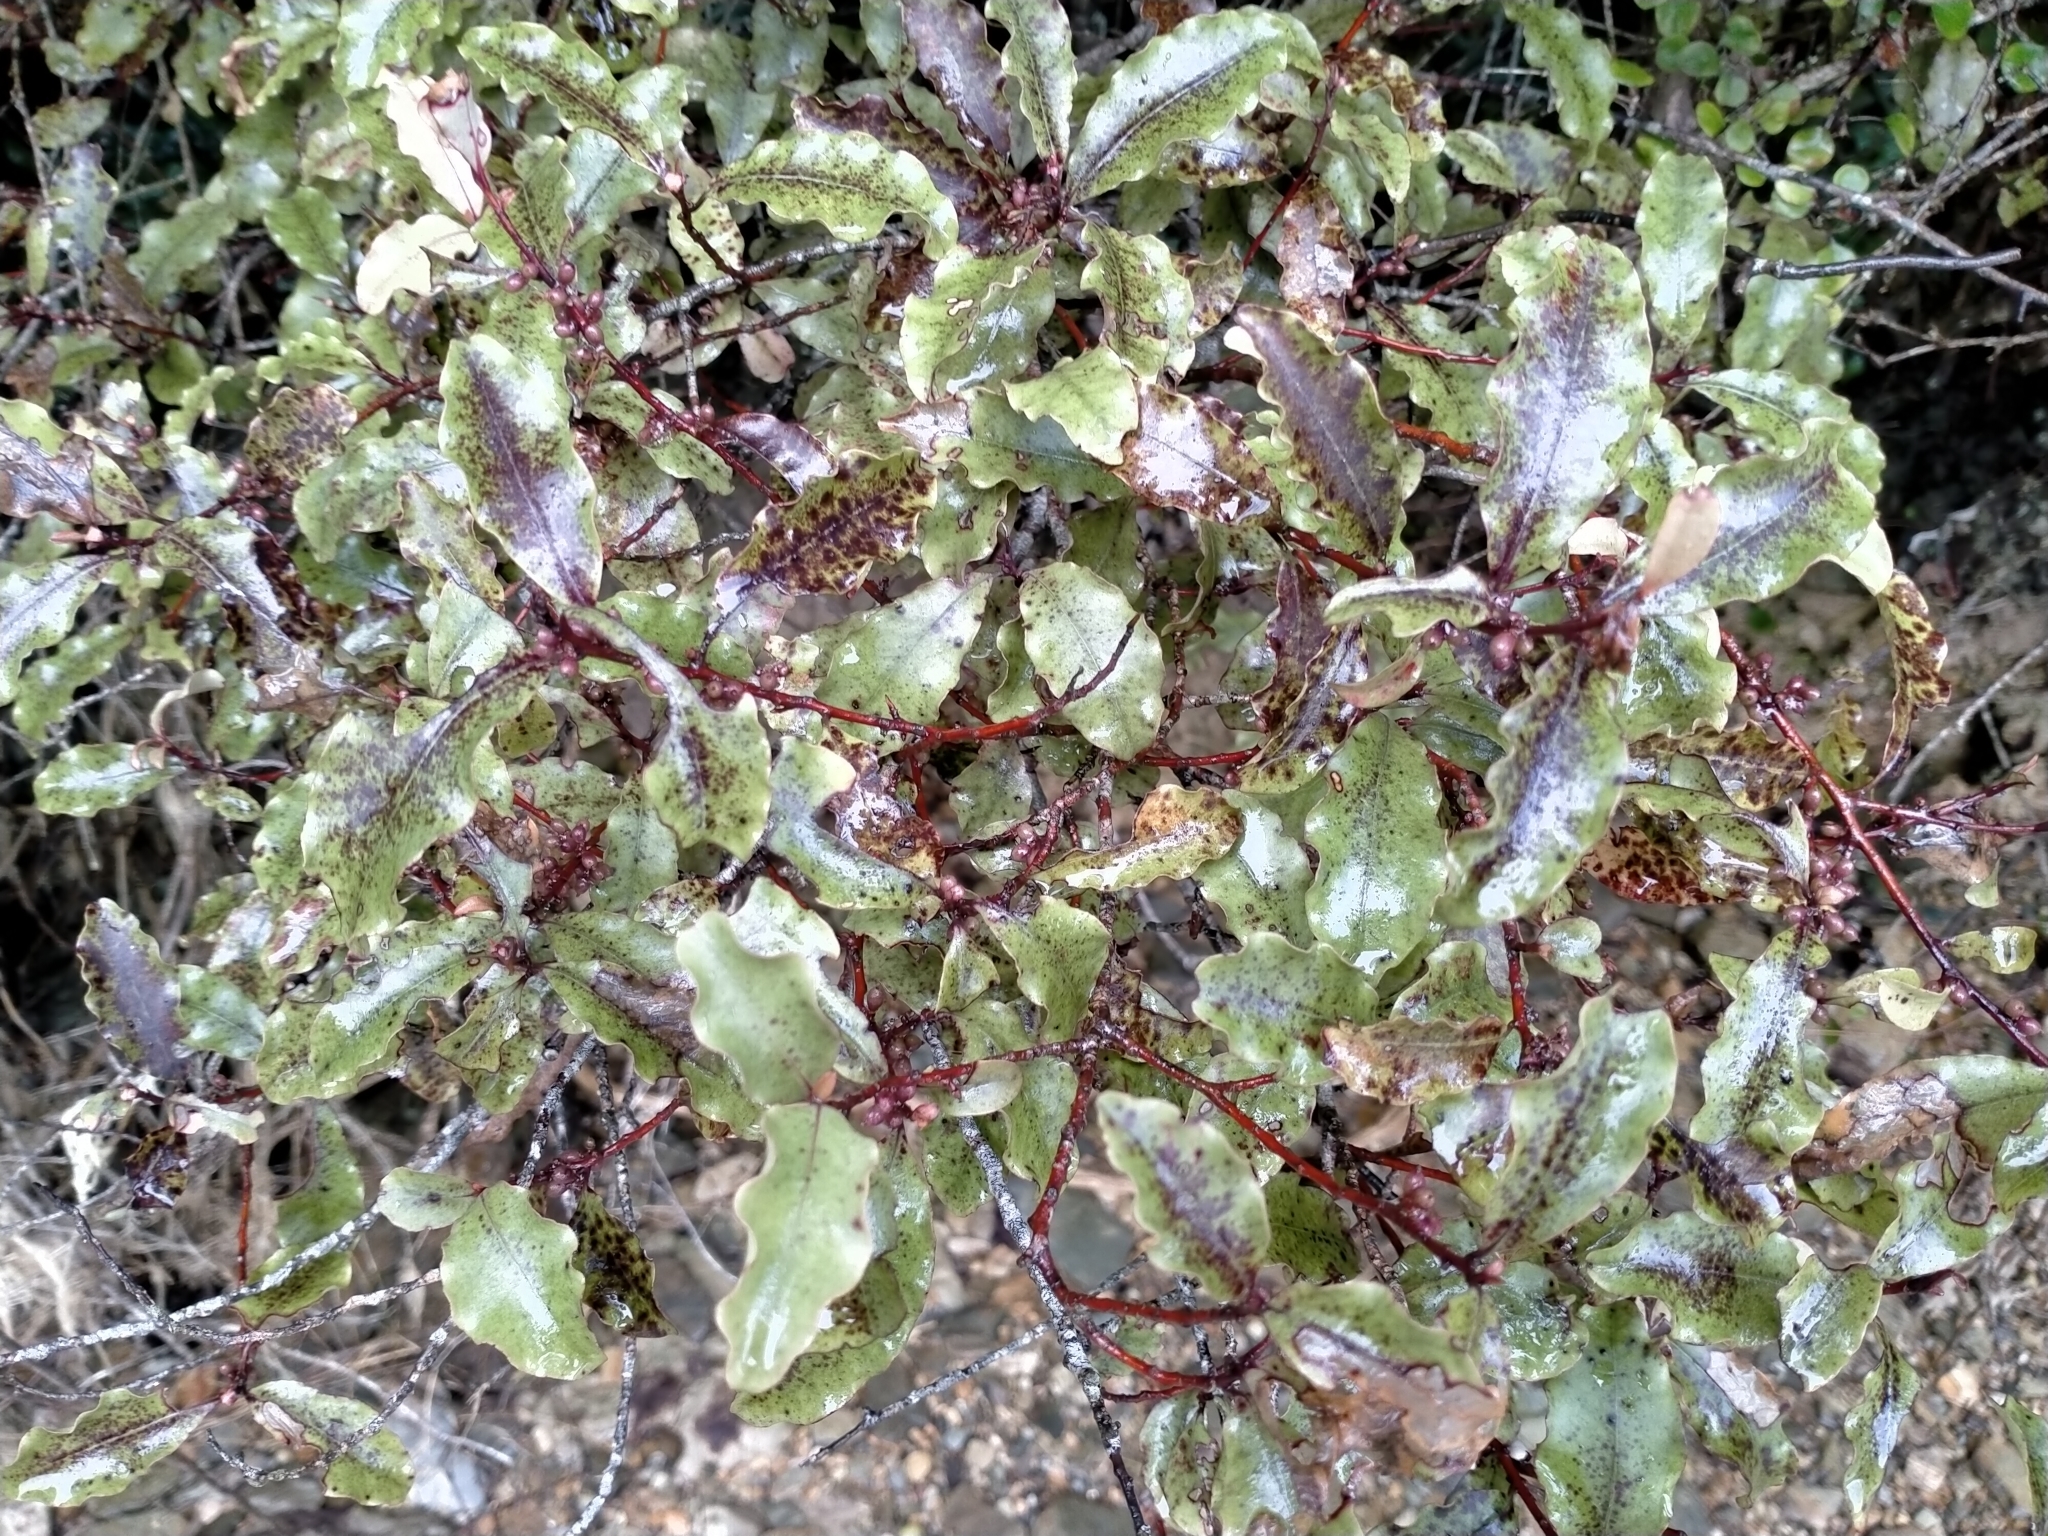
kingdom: Plantae
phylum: Tracheophyta
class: Magnoliopsida
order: Ericales
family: Primulaceae
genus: Myrsine
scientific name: Myrsine australis
